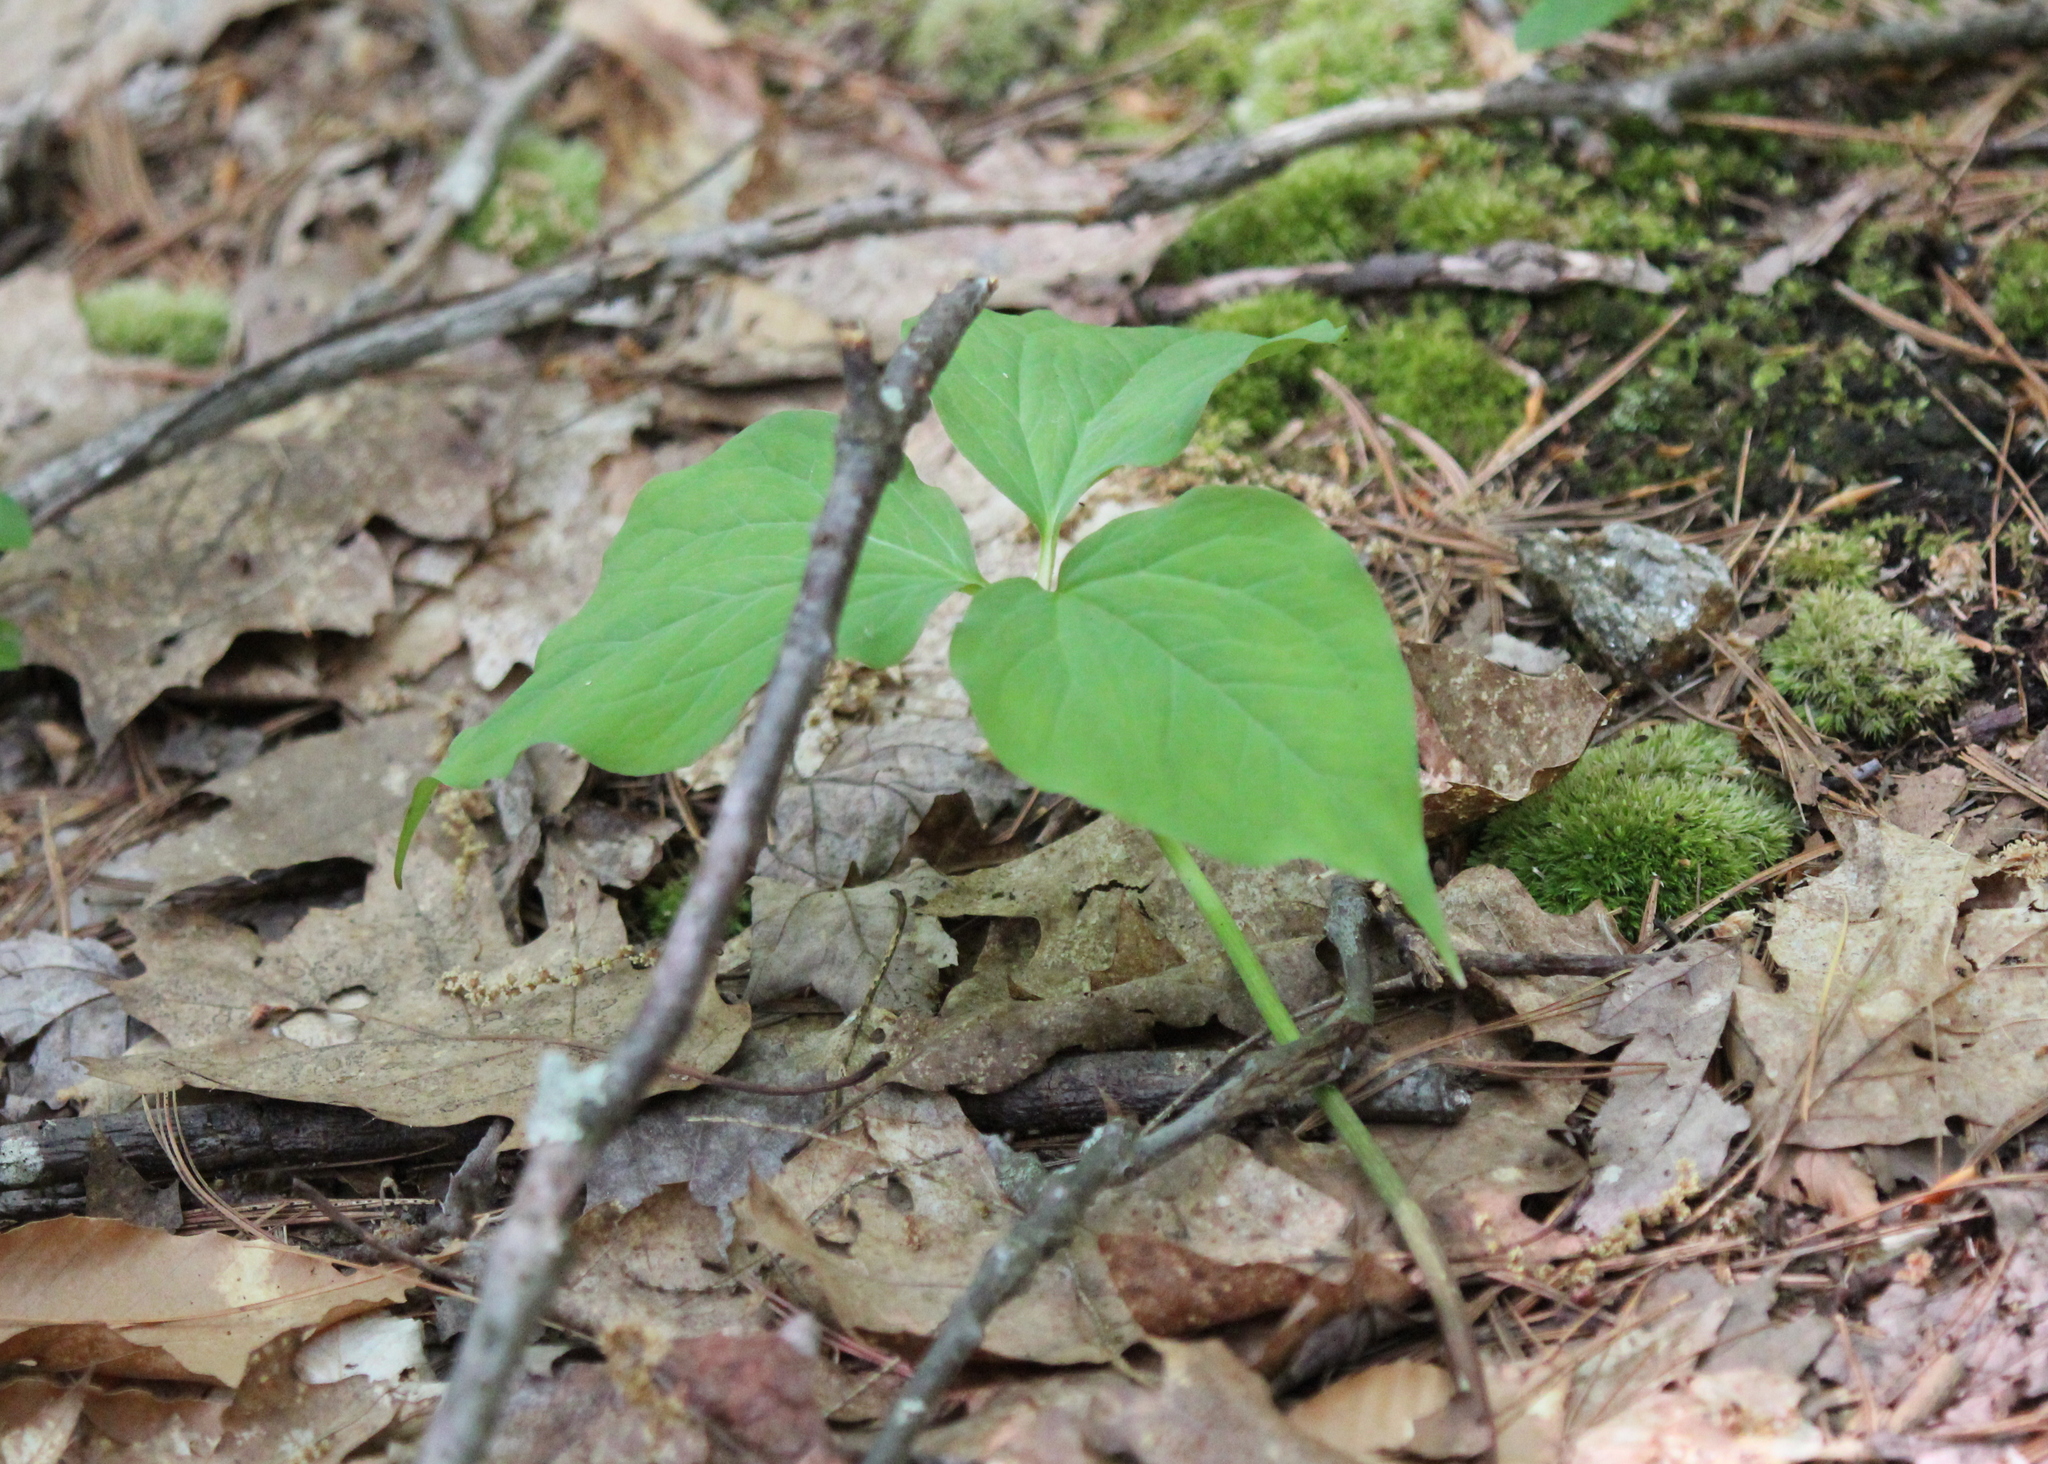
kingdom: Plantae
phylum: Tracheophyta
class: Liliopsida
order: Liliales
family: Melanthiaceae
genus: Trillium
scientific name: Trillium undulatum
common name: Paint trillium
